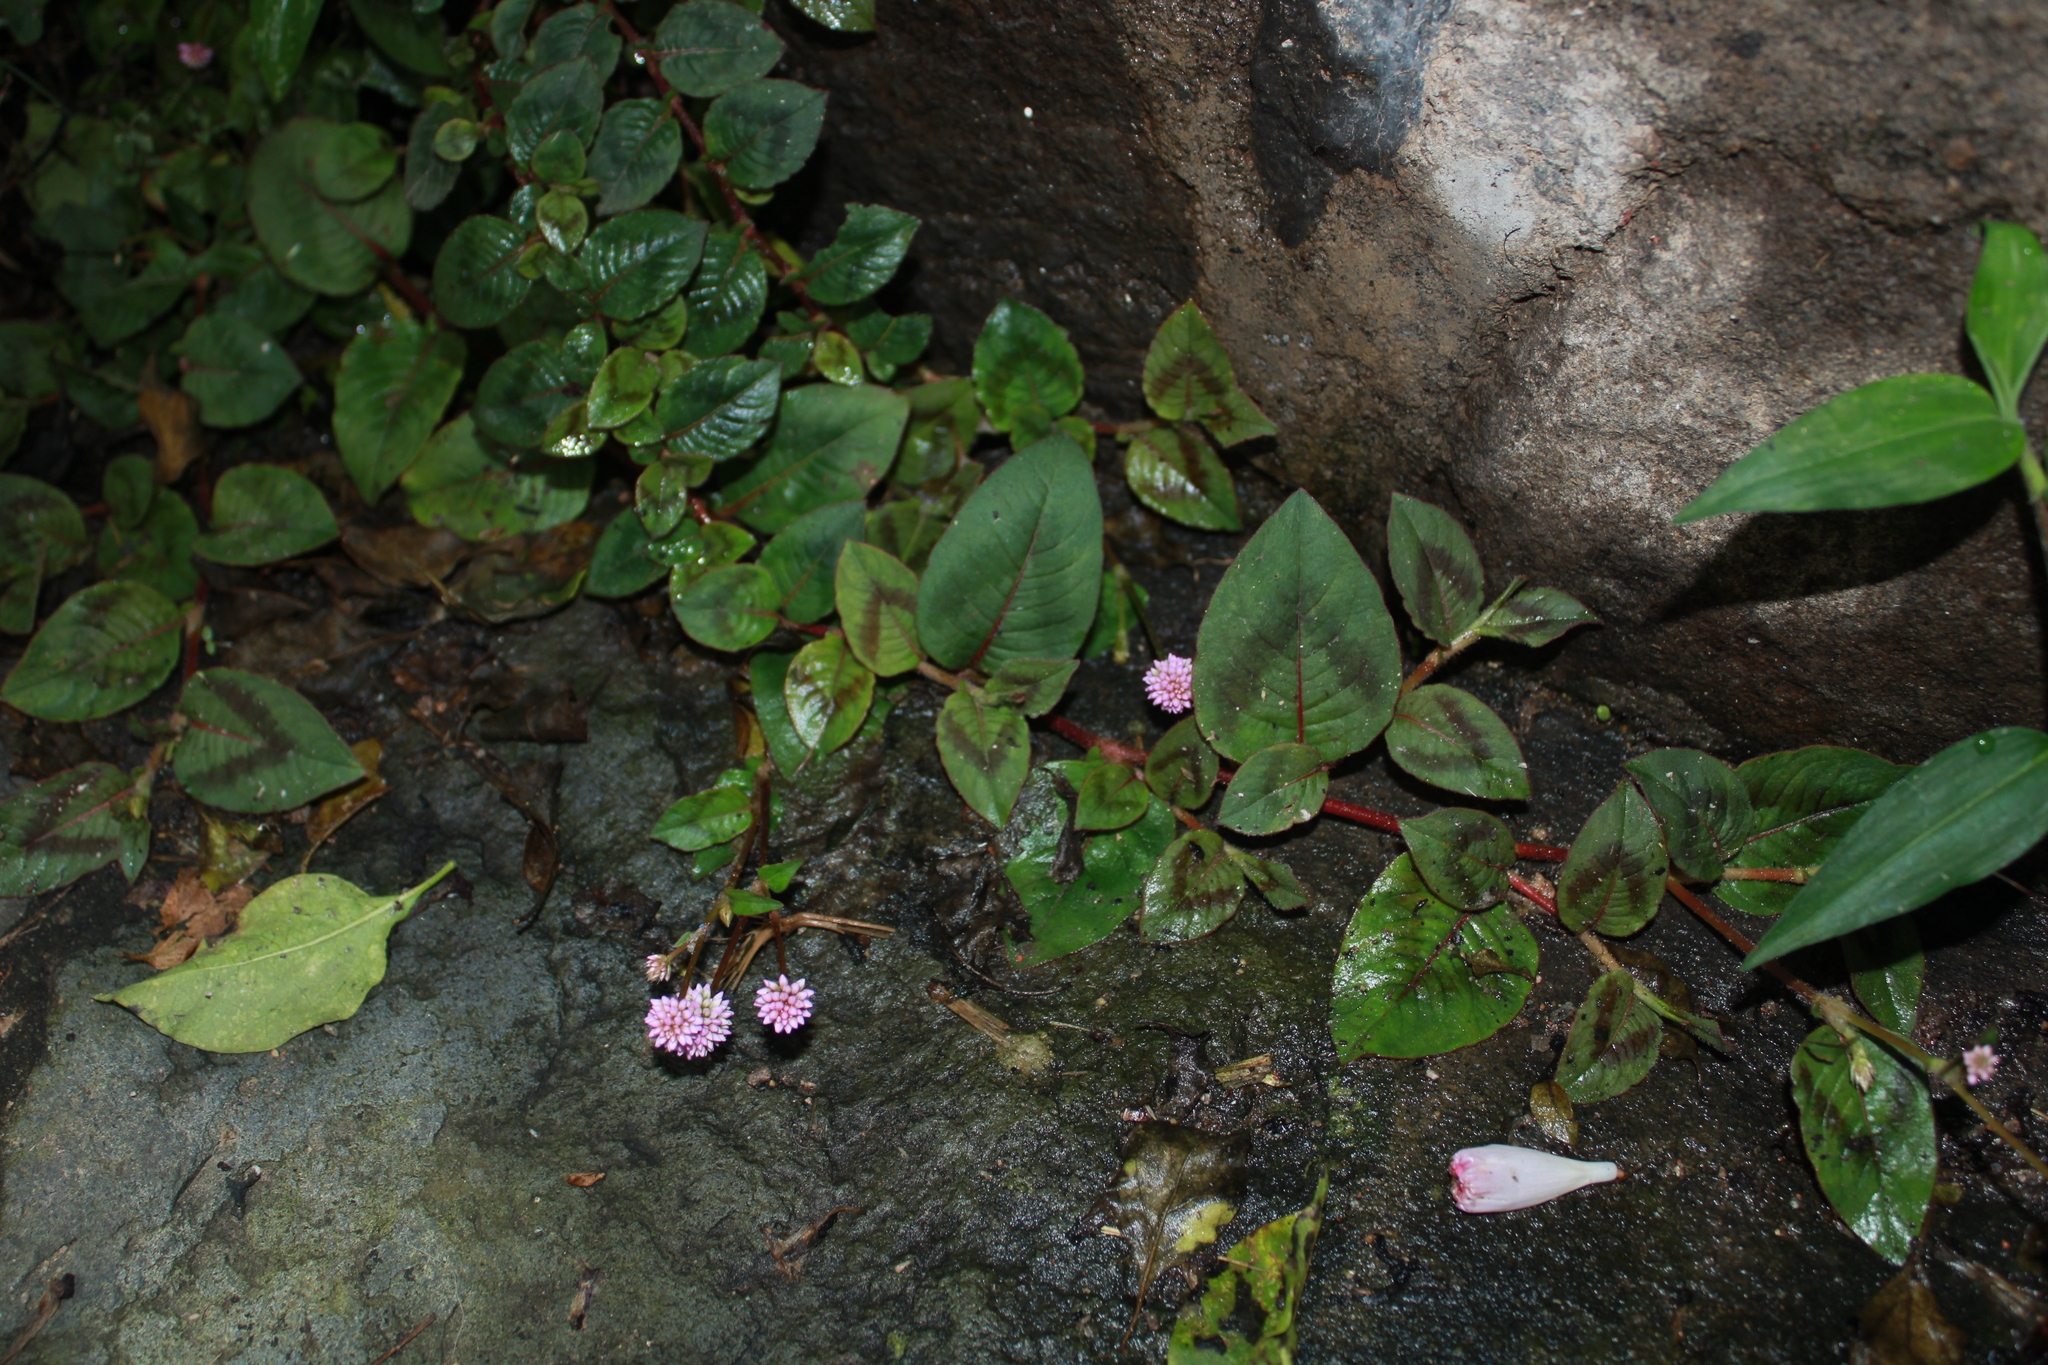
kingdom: Plantae
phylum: Tracheophyta
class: Magnoliopsida
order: Caryophyllales
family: Polygonaceae
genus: Persicaria
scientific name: Persicaria capitata
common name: Pinkhead smartweed
